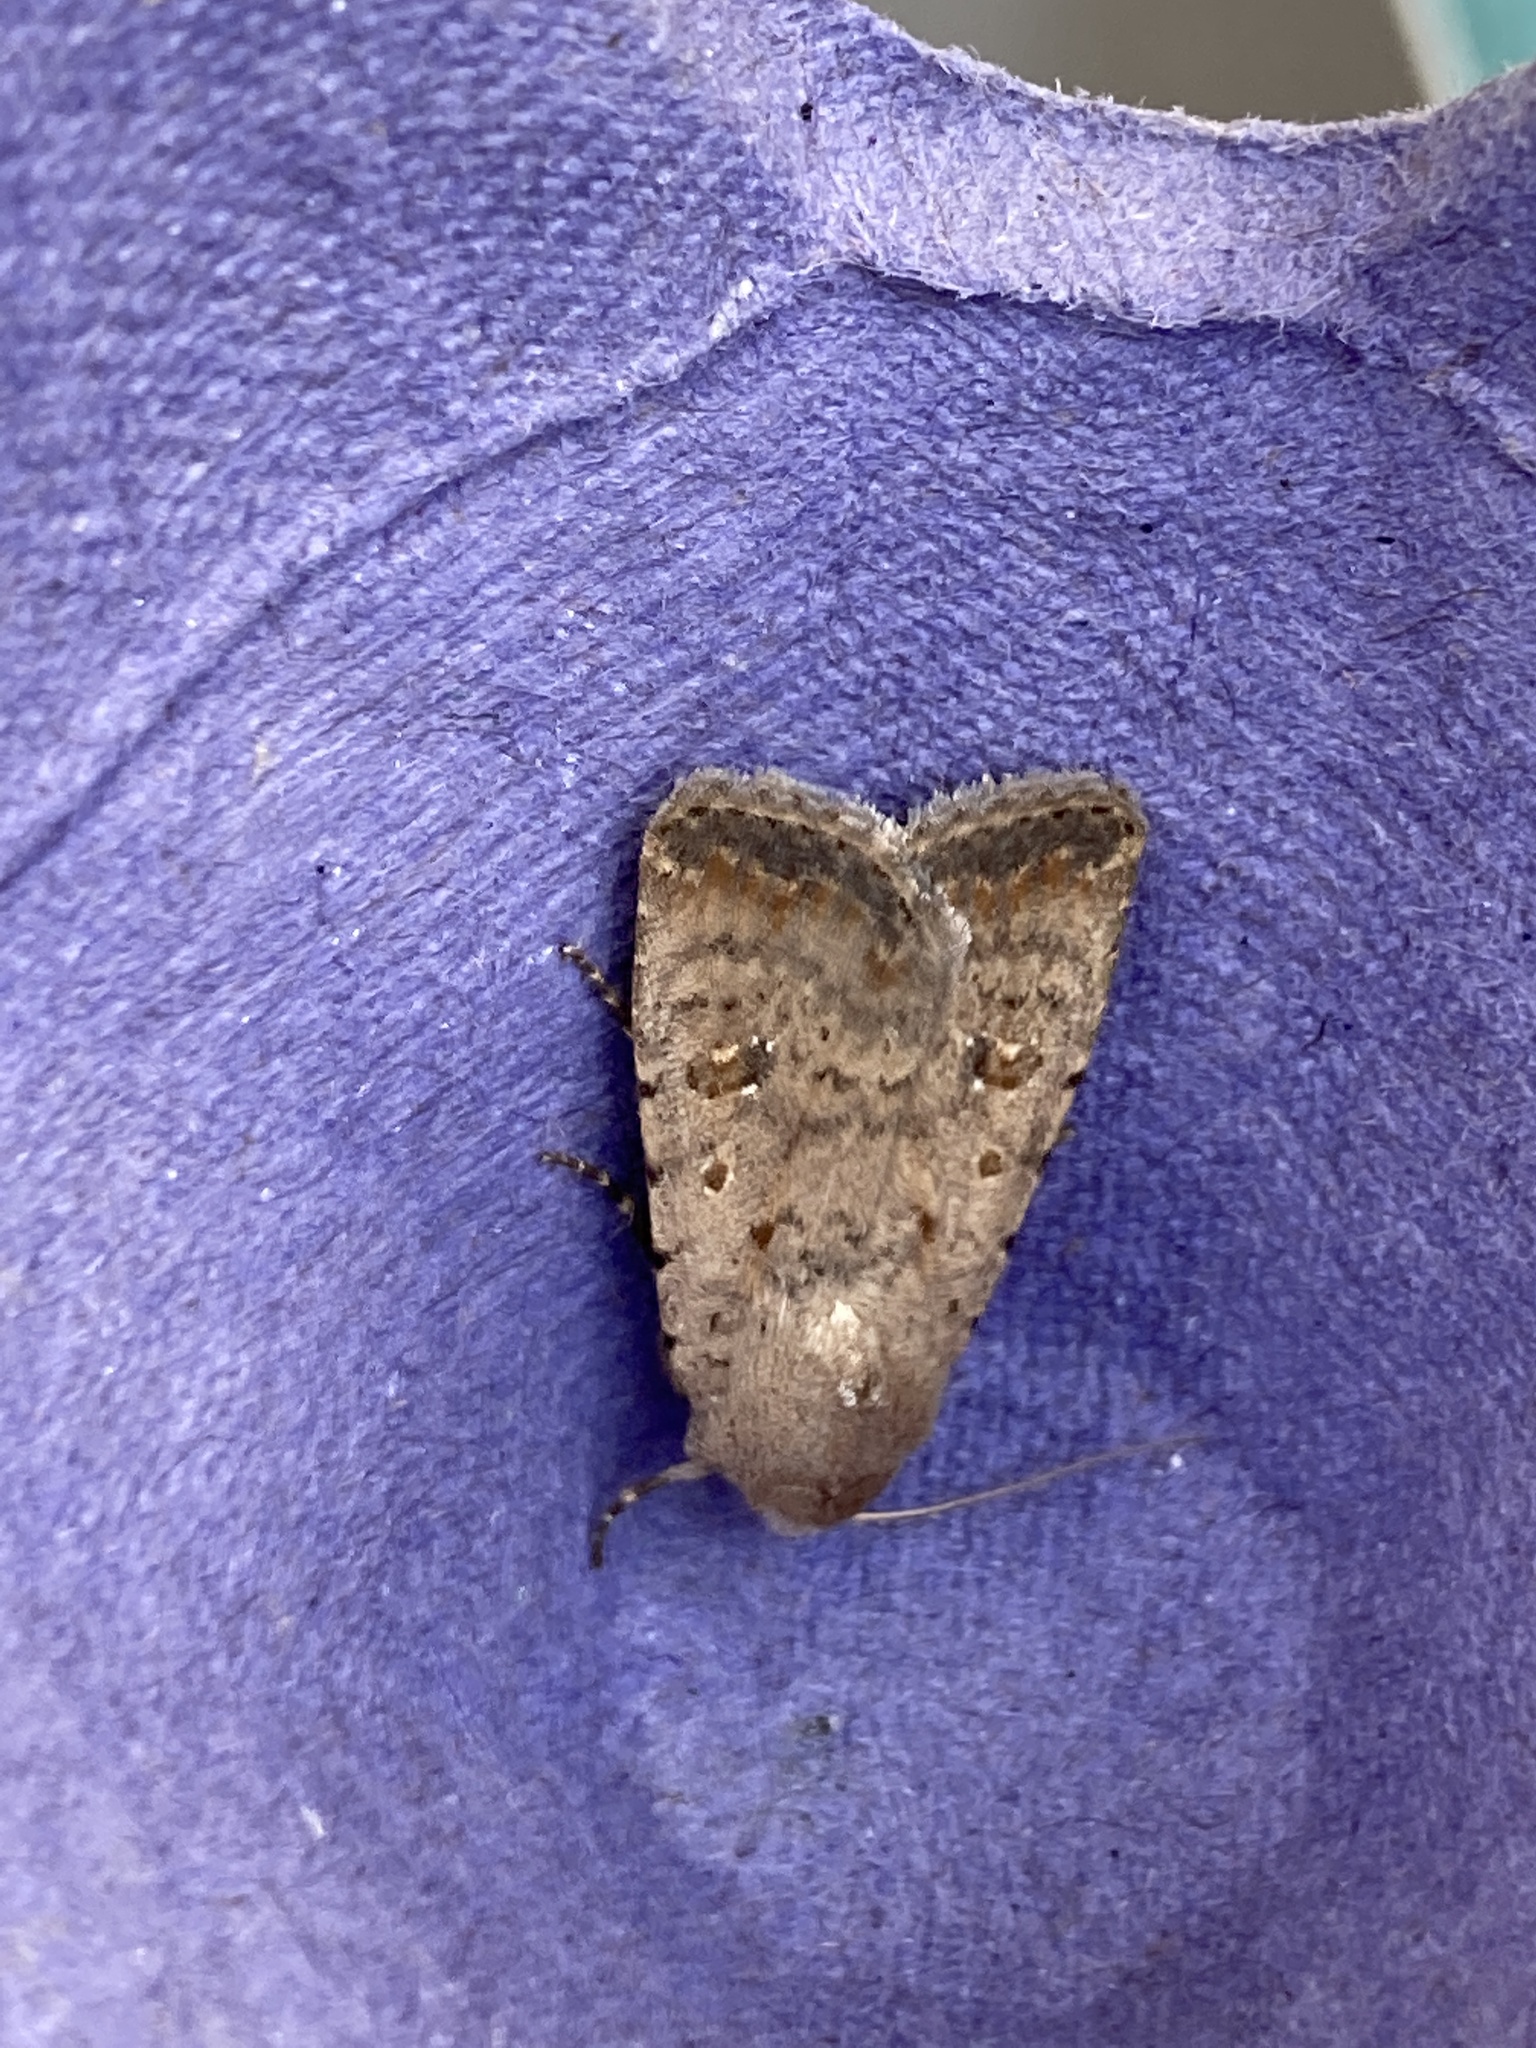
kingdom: Animalia
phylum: Arthropoda
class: Insecta
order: Lepidoptera
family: Noctuidae
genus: Caradrina
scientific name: Caradrina clavipalpis
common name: Pale mottled willow
